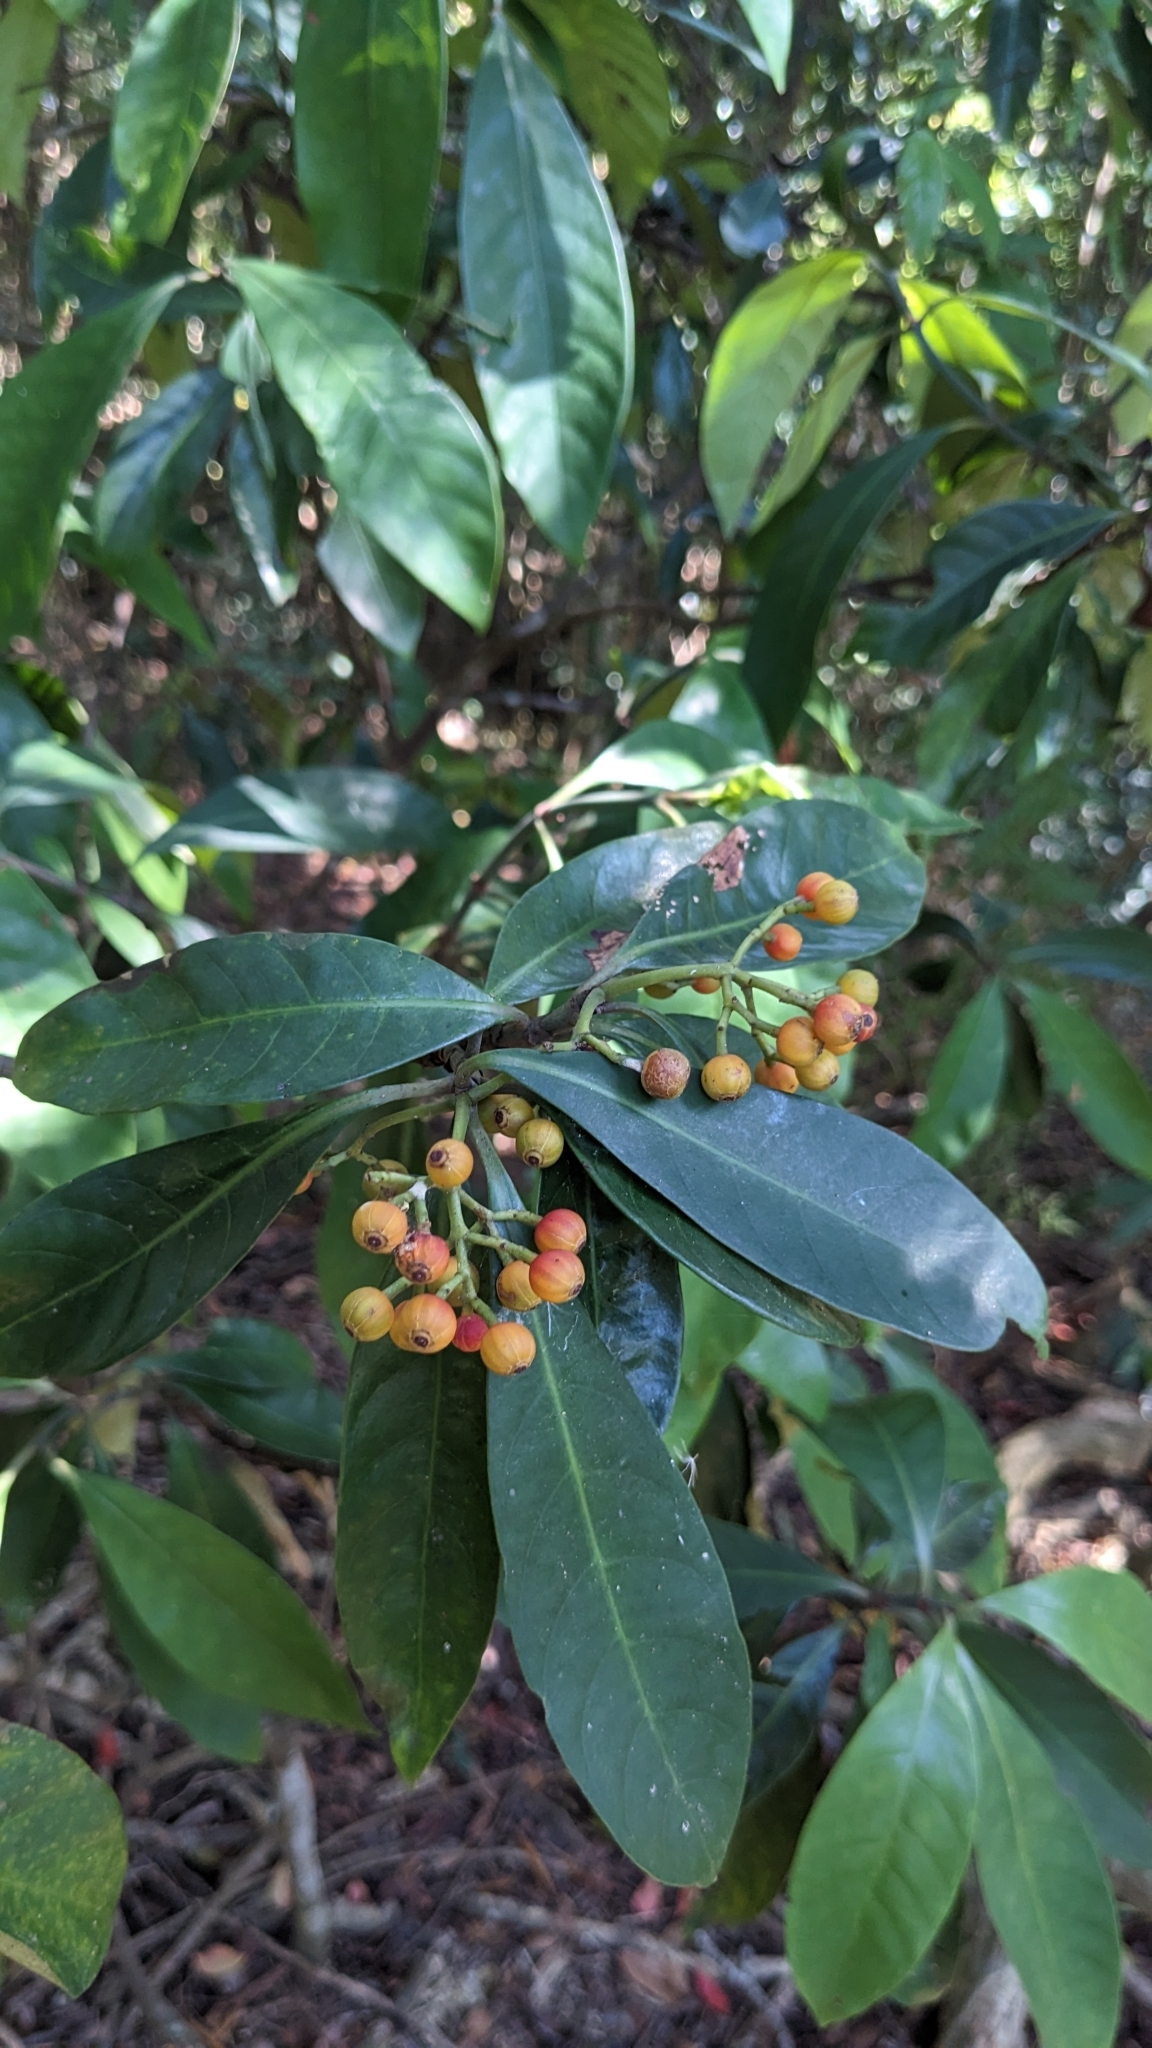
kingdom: Plantae
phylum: Tracheophyta
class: Magnoliopsida
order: Gentianales
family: Rubiaceae
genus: Psychotria
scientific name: Psychotria asiatica
